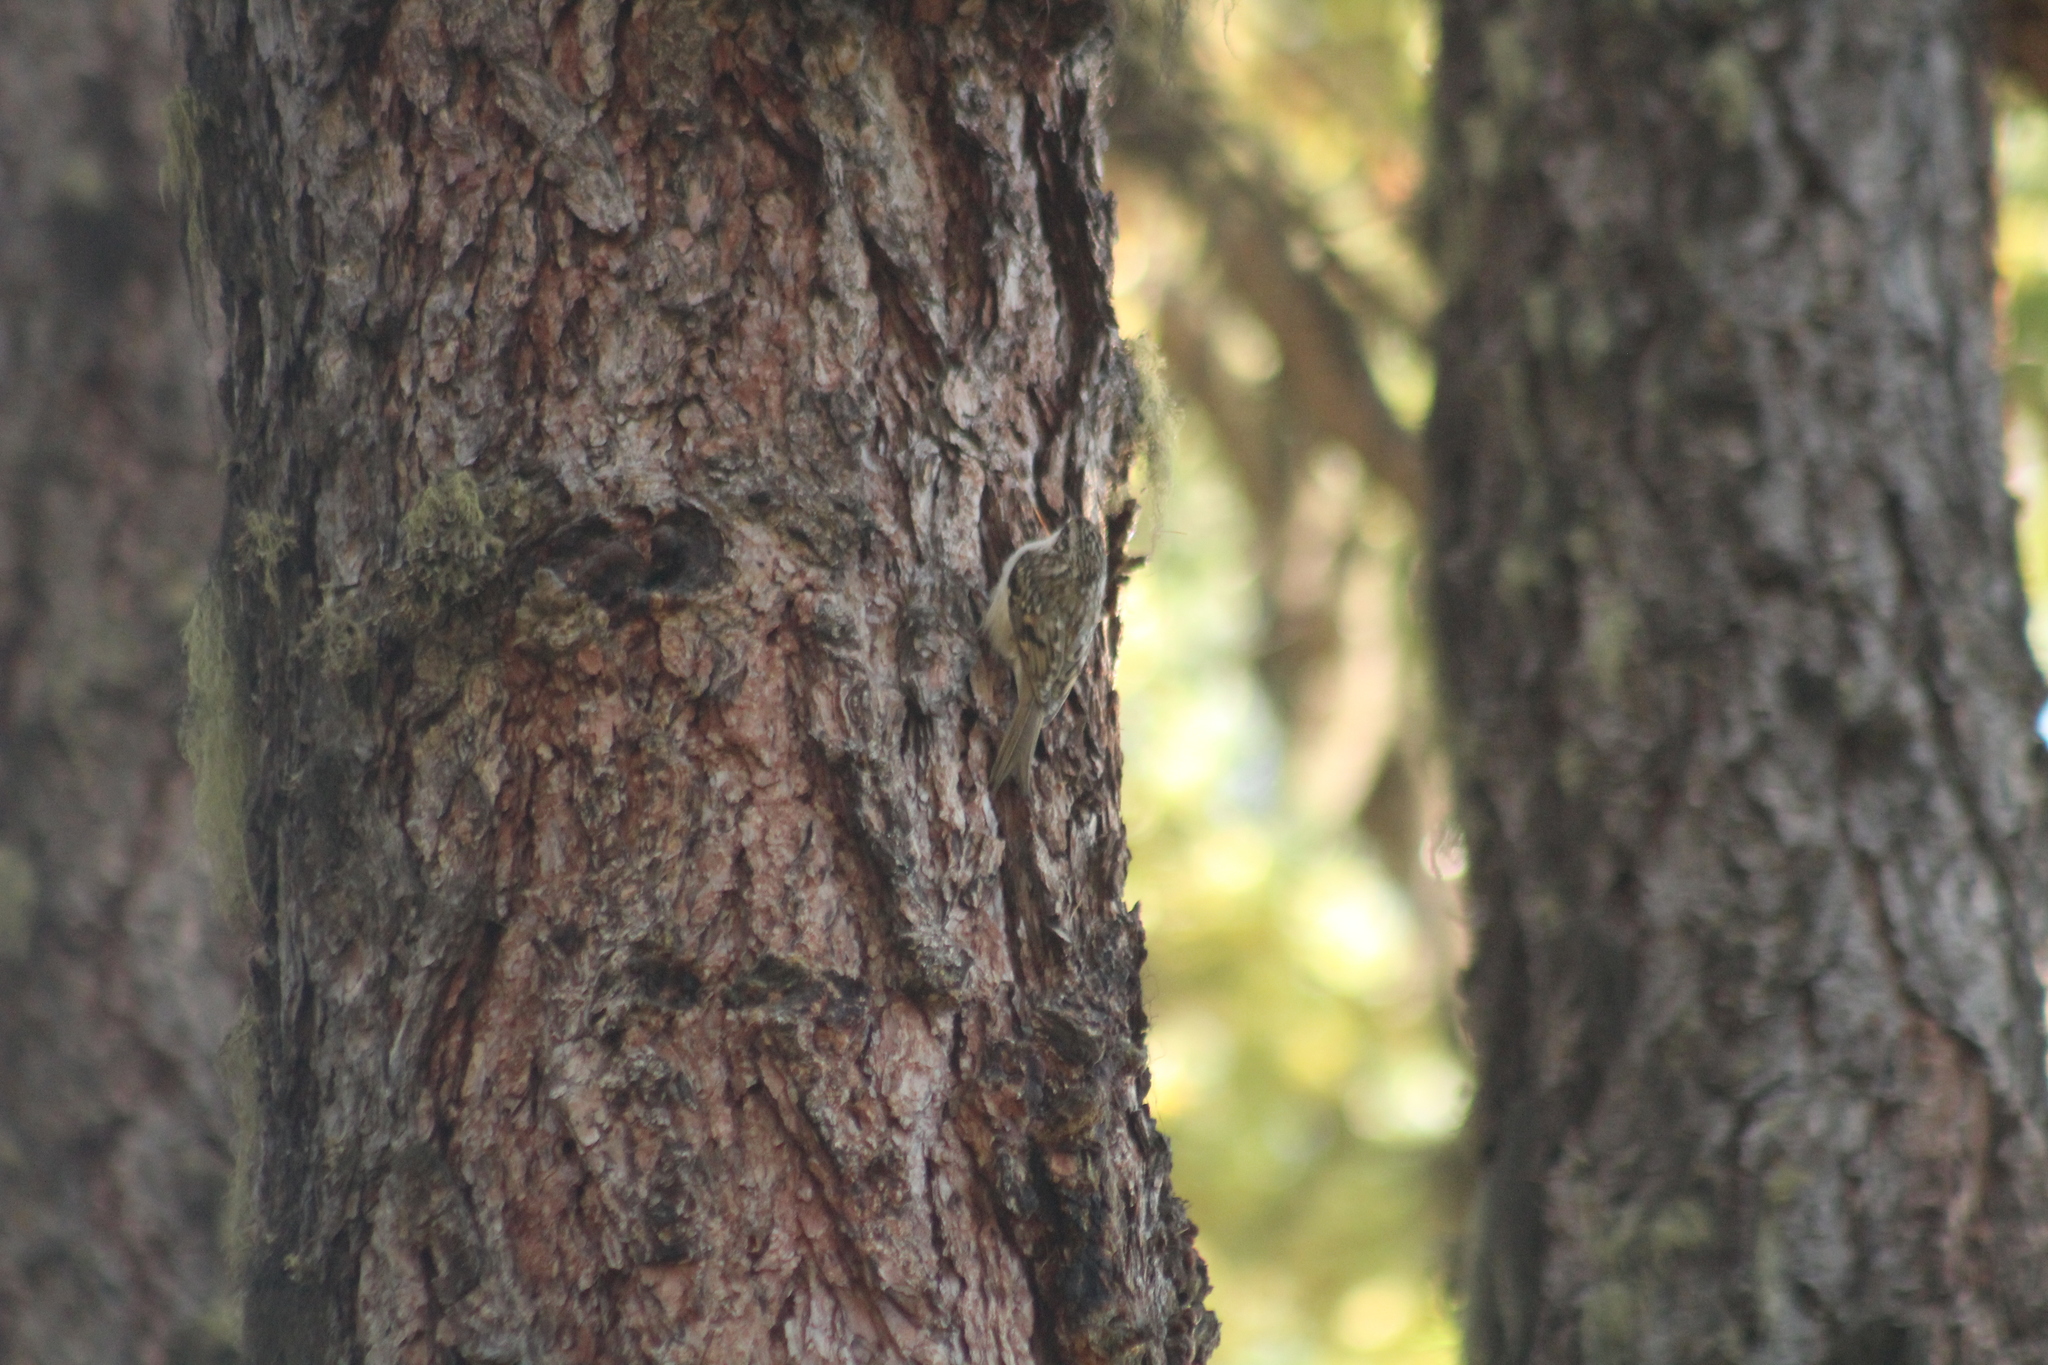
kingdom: Animalia
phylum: Chordata
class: Aves
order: Passeriformes
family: Certhiidae
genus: Certhia
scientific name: Certhia familiaris
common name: Eurasian treecreeper
